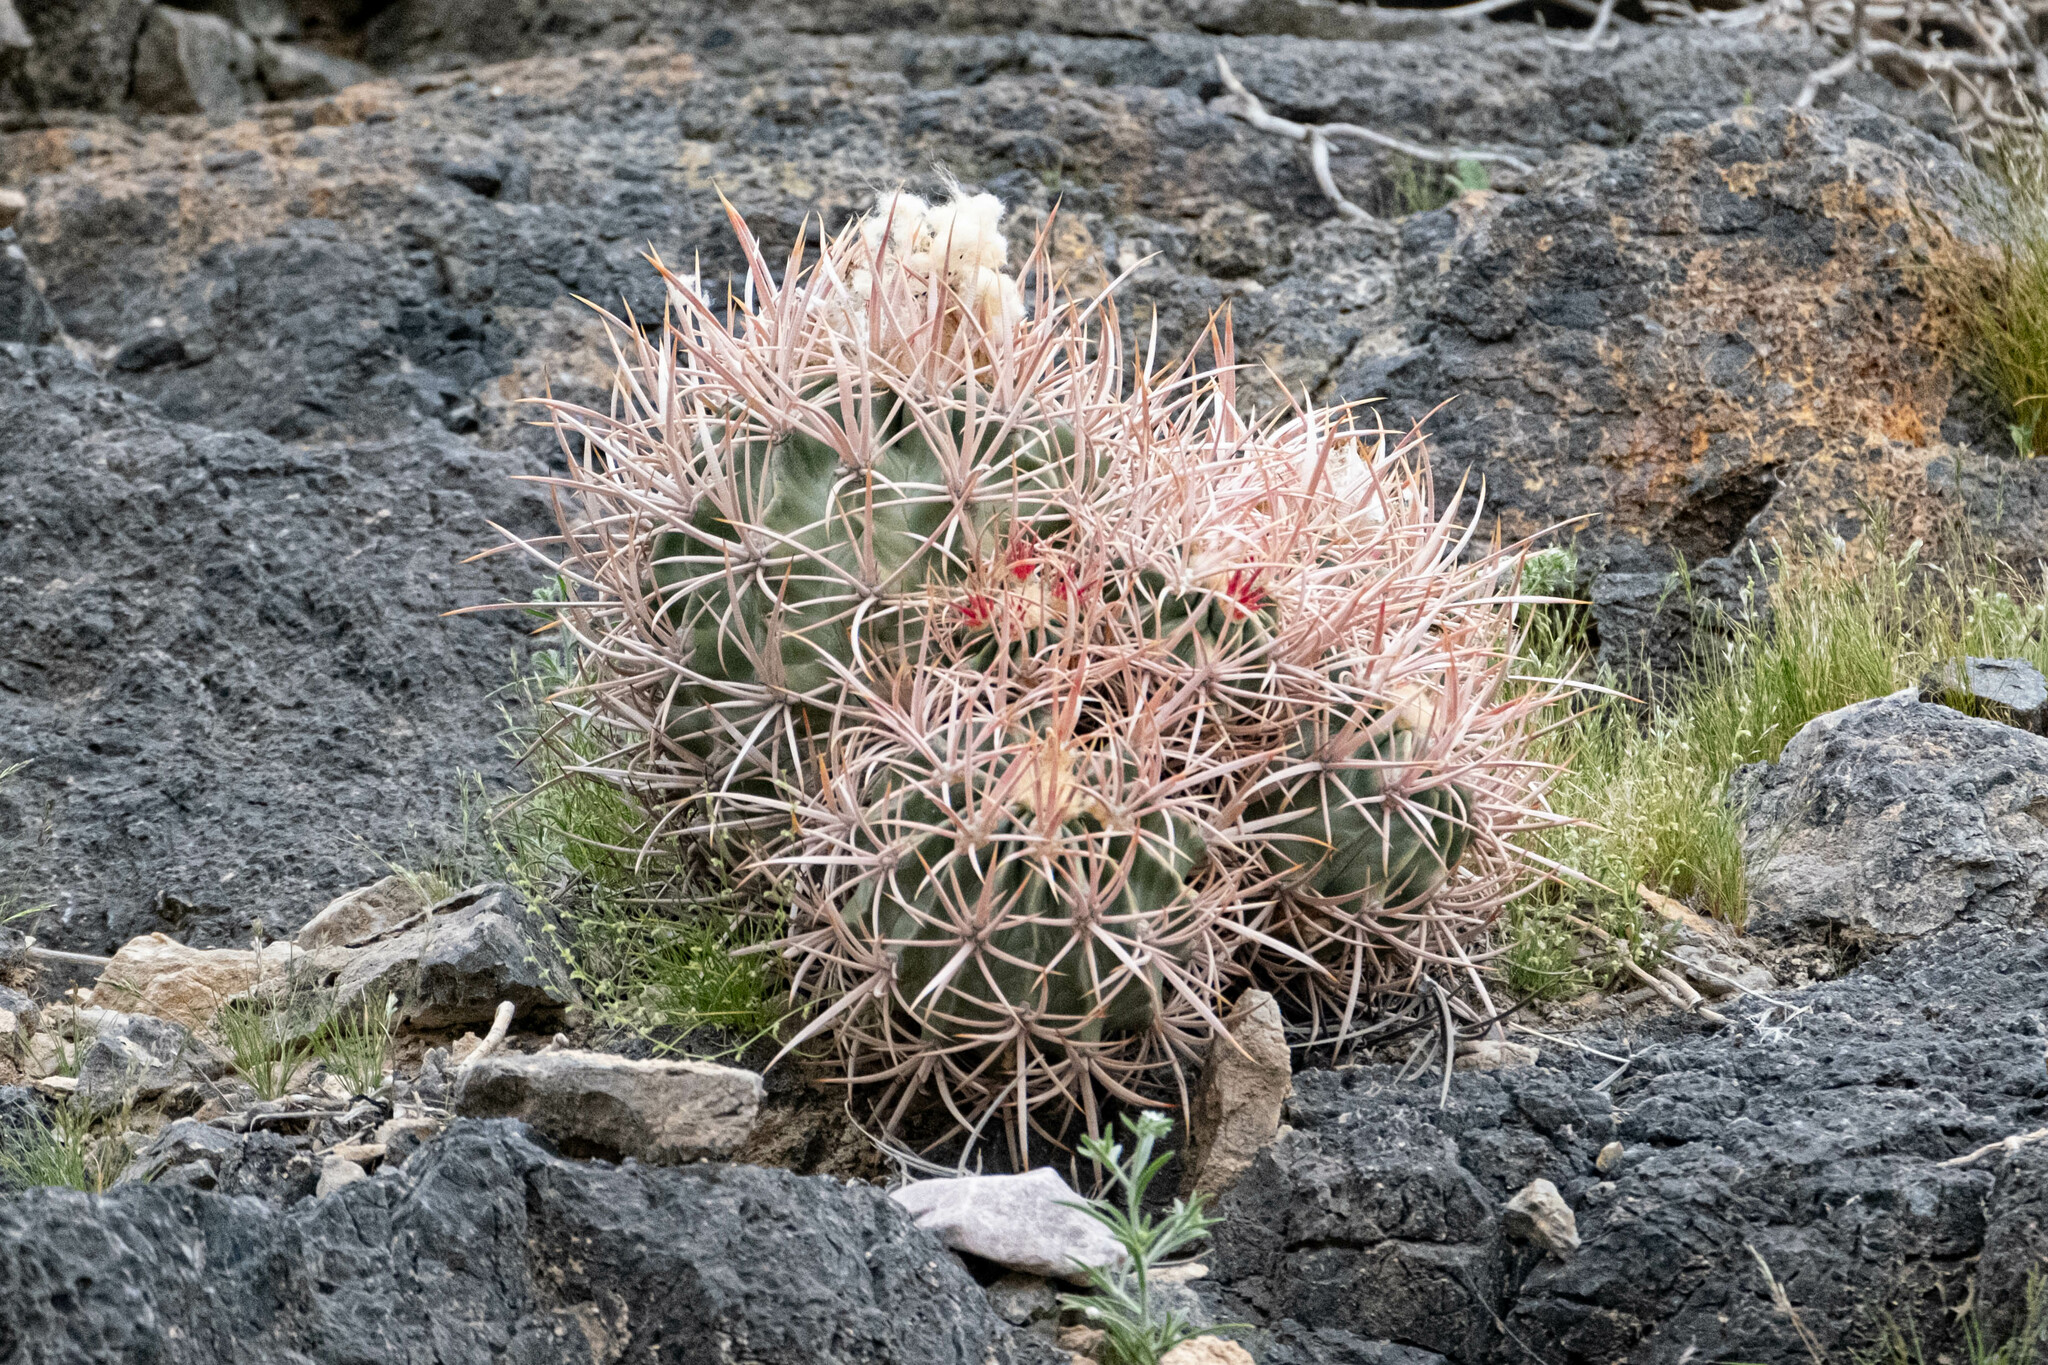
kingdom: Plantae
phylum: Tracheophyta
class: Magnoliopsida
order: Caryophyllales
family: Cactaceae
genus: Echinocactus
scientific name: Echinocactus polycephalus
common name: Cottontop cactus
